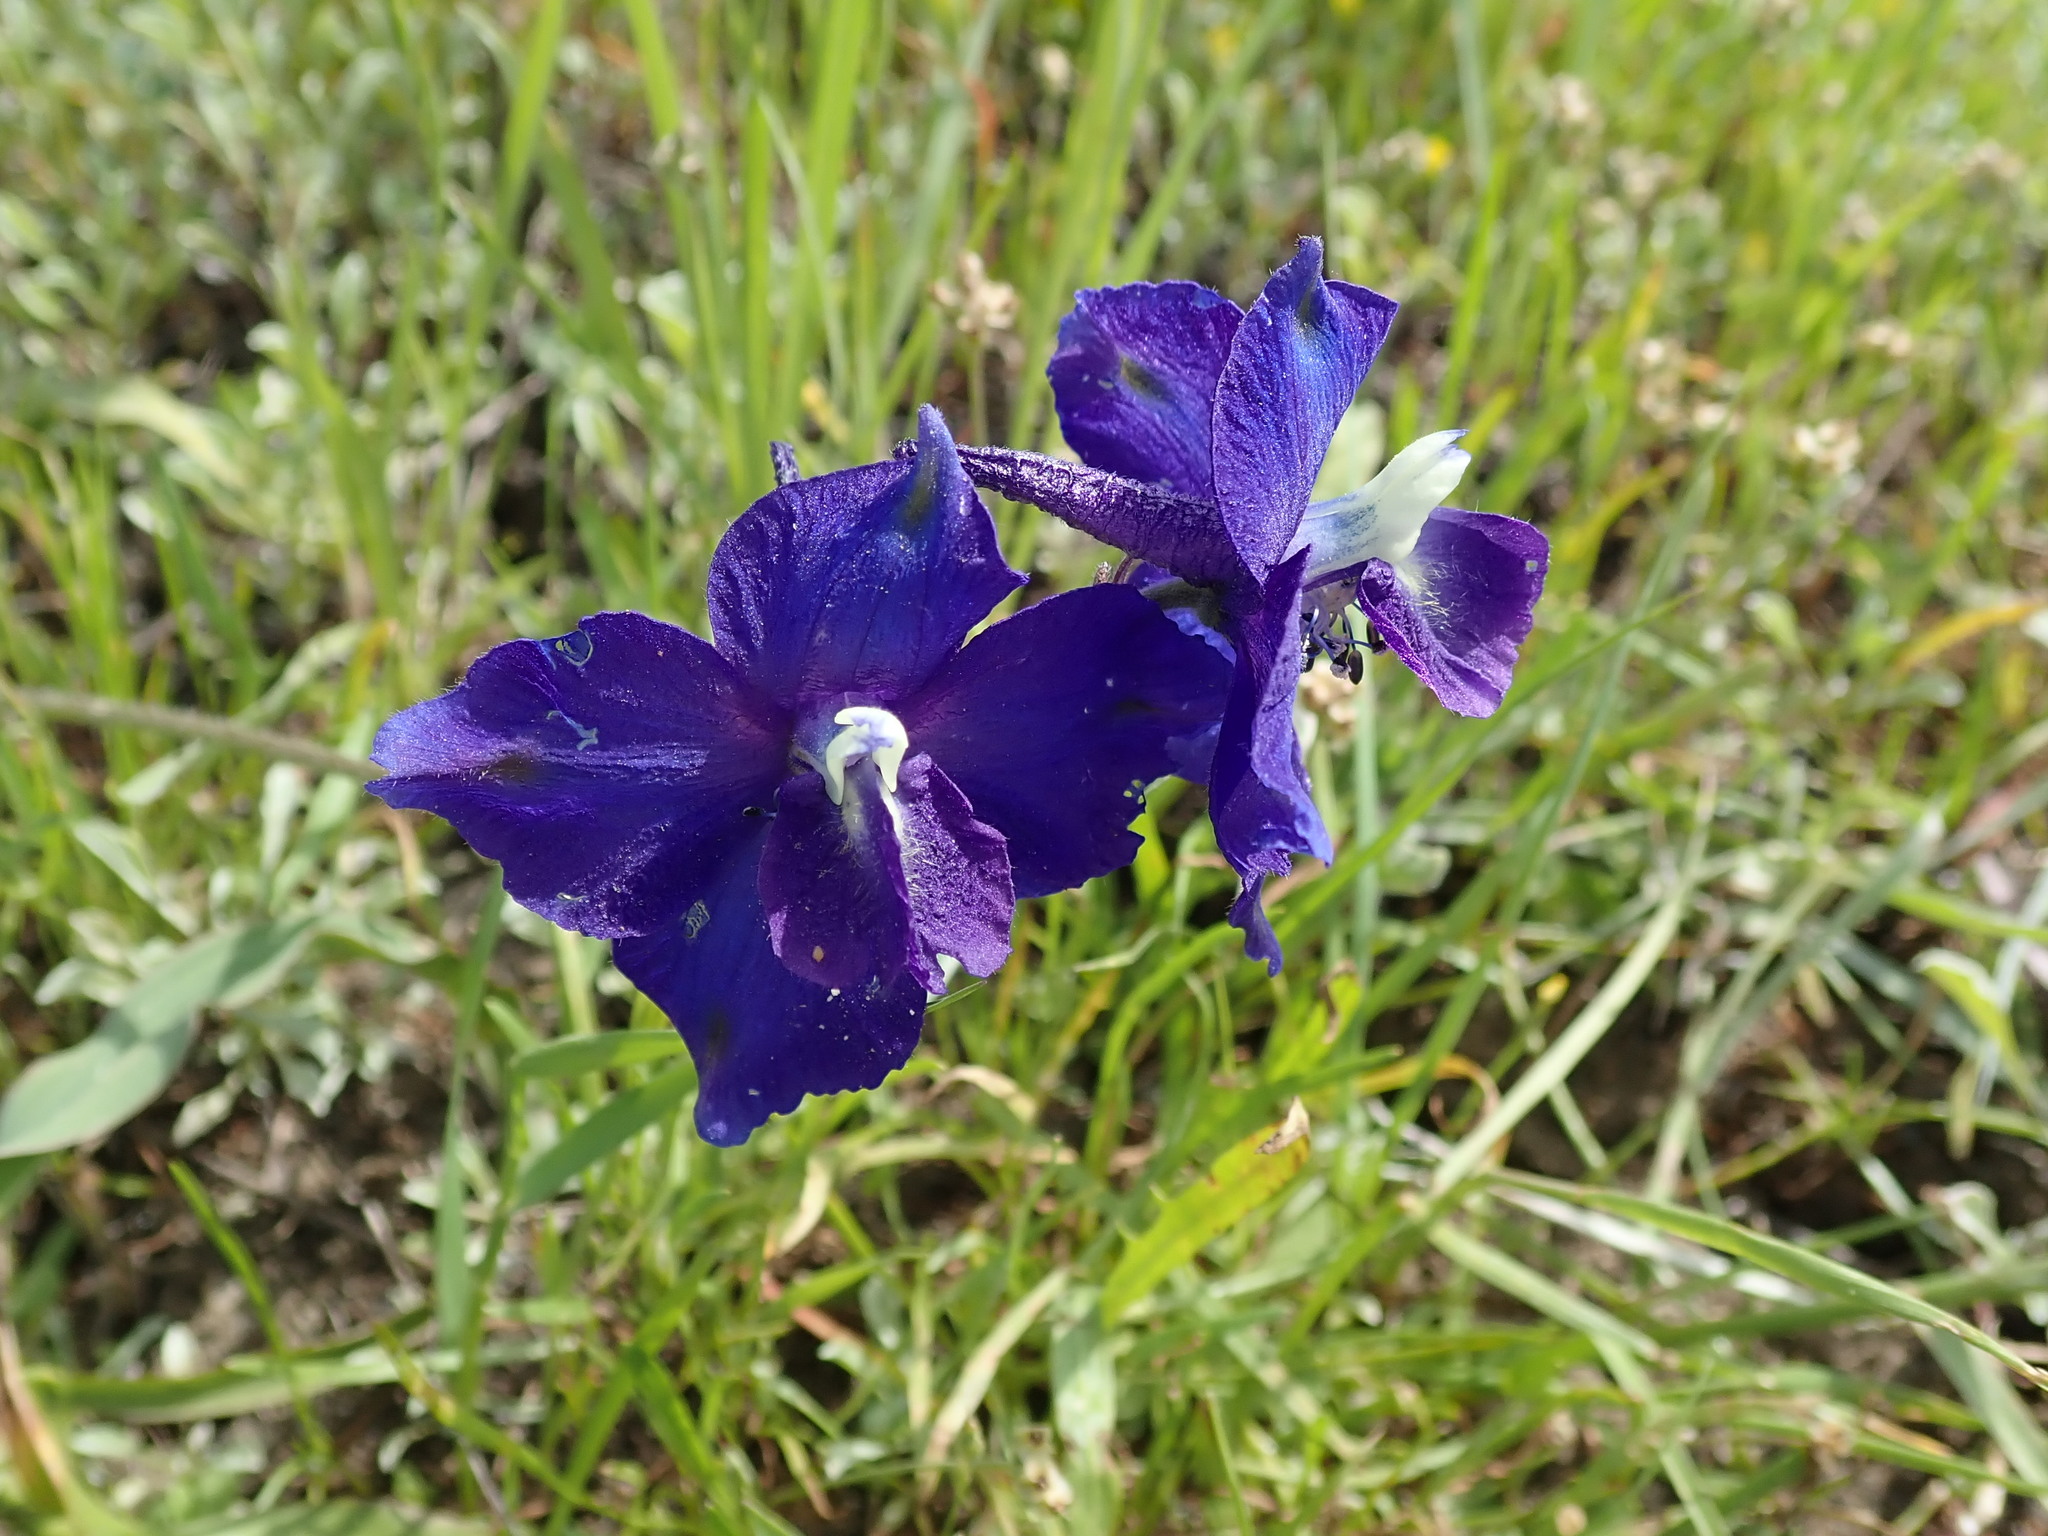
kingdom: Plantae
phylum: Tracheophyta
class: Magnoliopsida
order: Ranunculales
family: Ranunculaceae
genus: Delphinium
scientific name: Delphinium variegatum
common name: Royal larkspur
